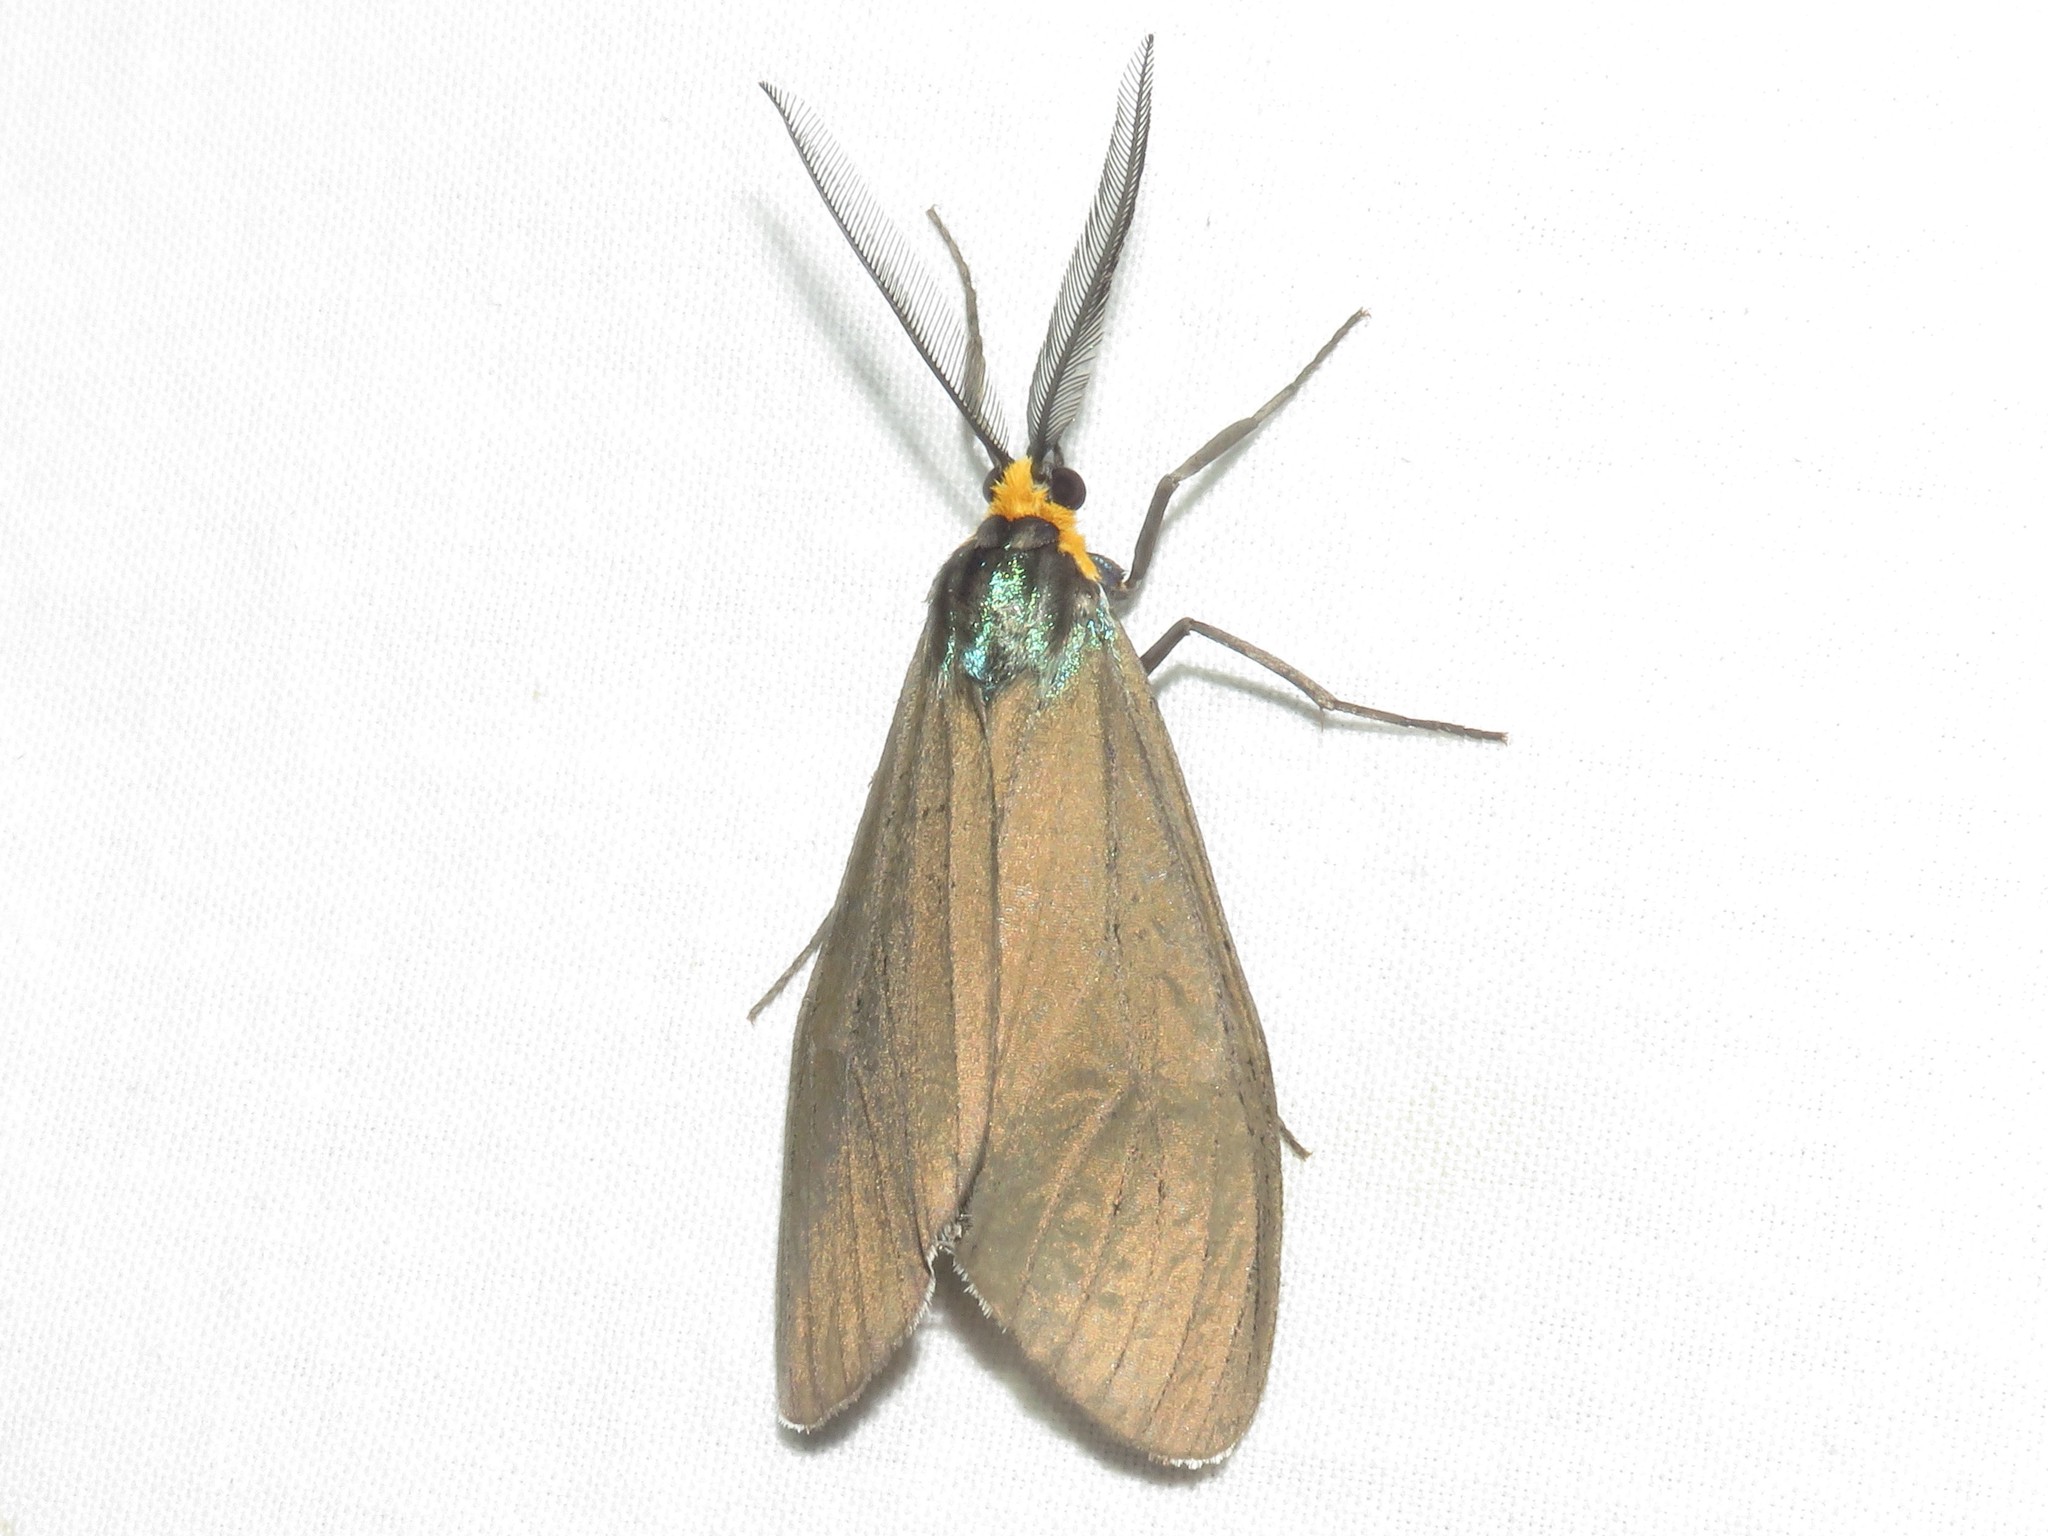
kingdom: Animalia
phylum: Arthropoda
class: Insecta
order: Lepidoptera
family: Erebidae
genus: Ctenucha
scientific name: Ctenucha virginica
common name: Virginia ctenucha moth
